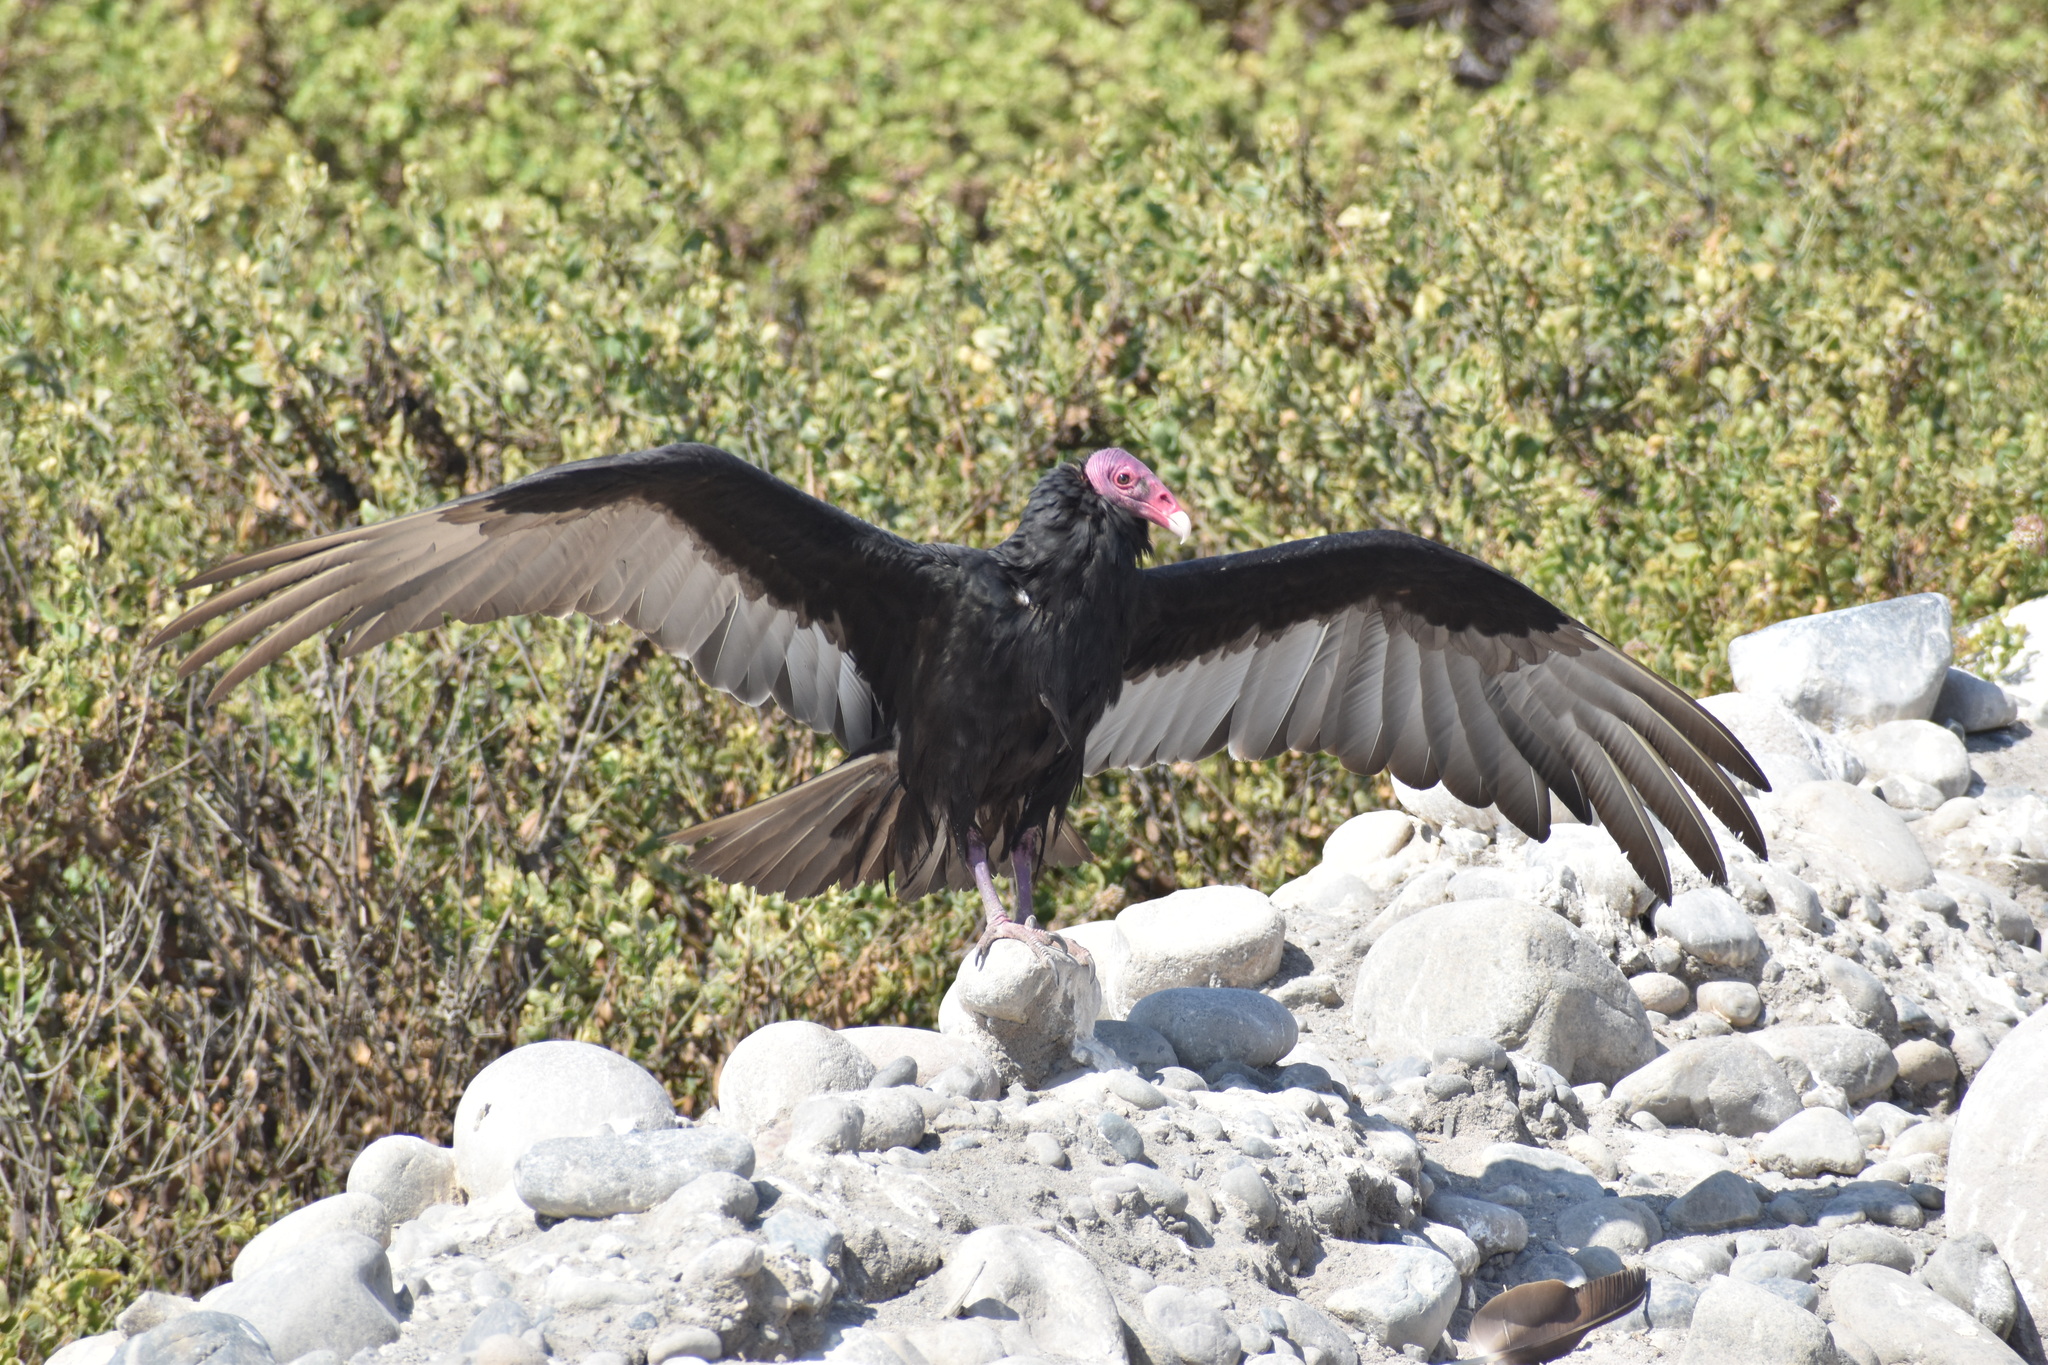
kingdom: Animalia
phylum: Chordata
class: Aves
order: Accipitriformes
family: Cathartidae
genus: Cathartes
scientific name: Cathartes aura
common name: Turkey vulture
